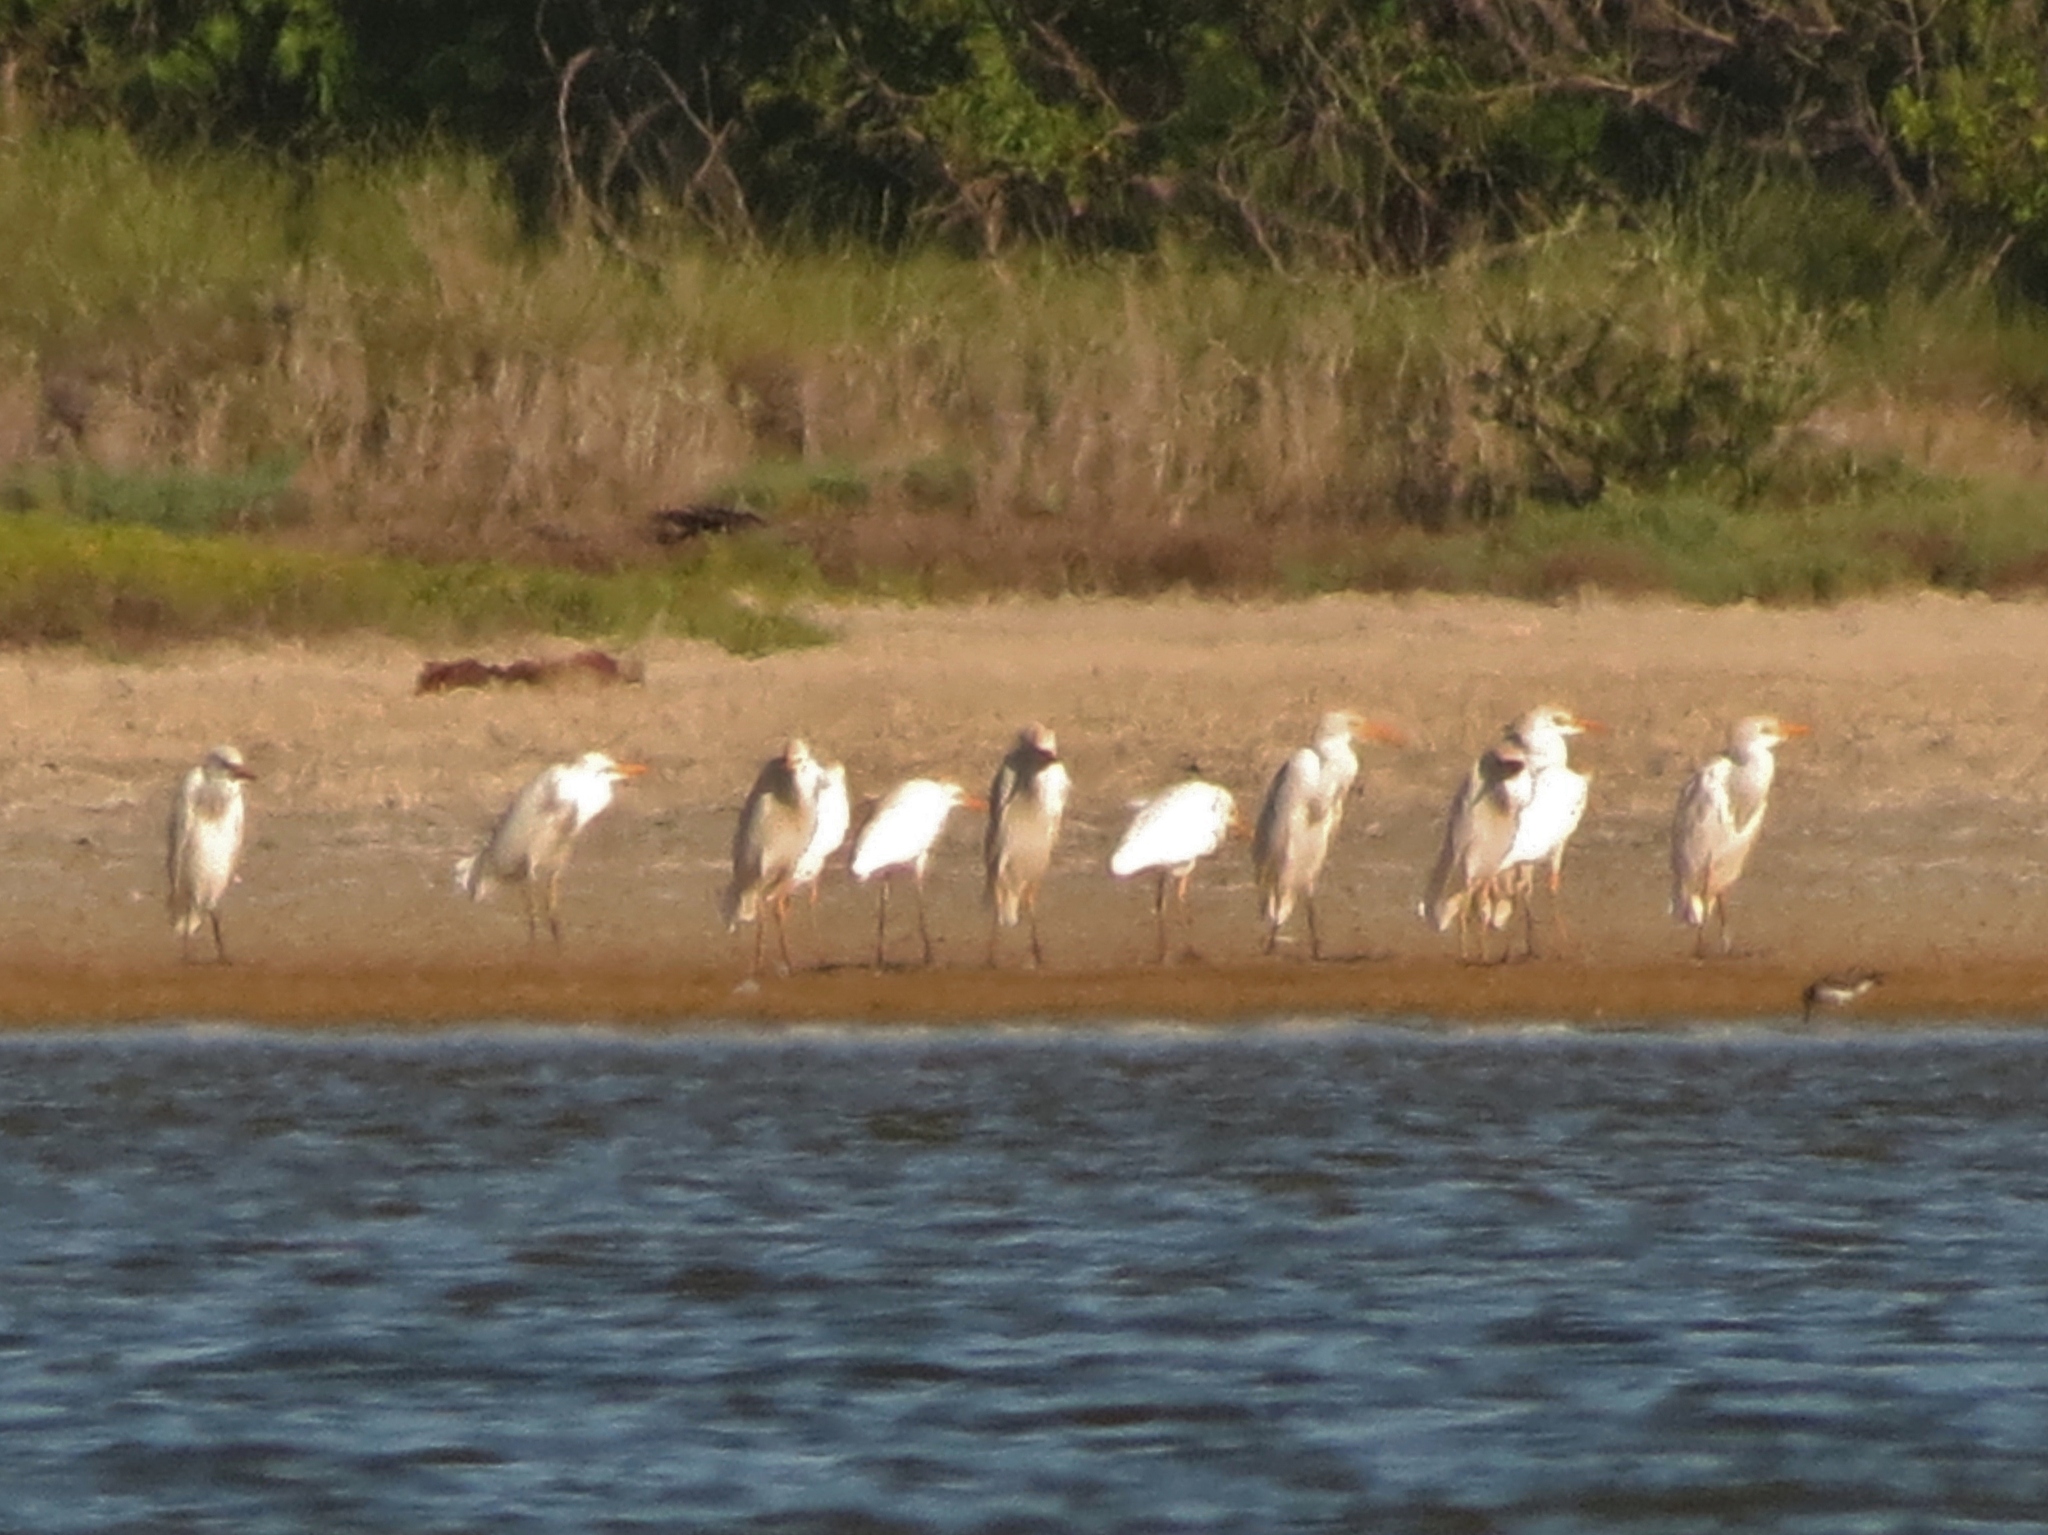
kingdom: Animalia
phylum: Chordata
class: Aves
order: Pelecaniformes
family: Ardeidae
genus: Bubulcus
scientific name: Bubulcus ibis
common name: Cattle egret
